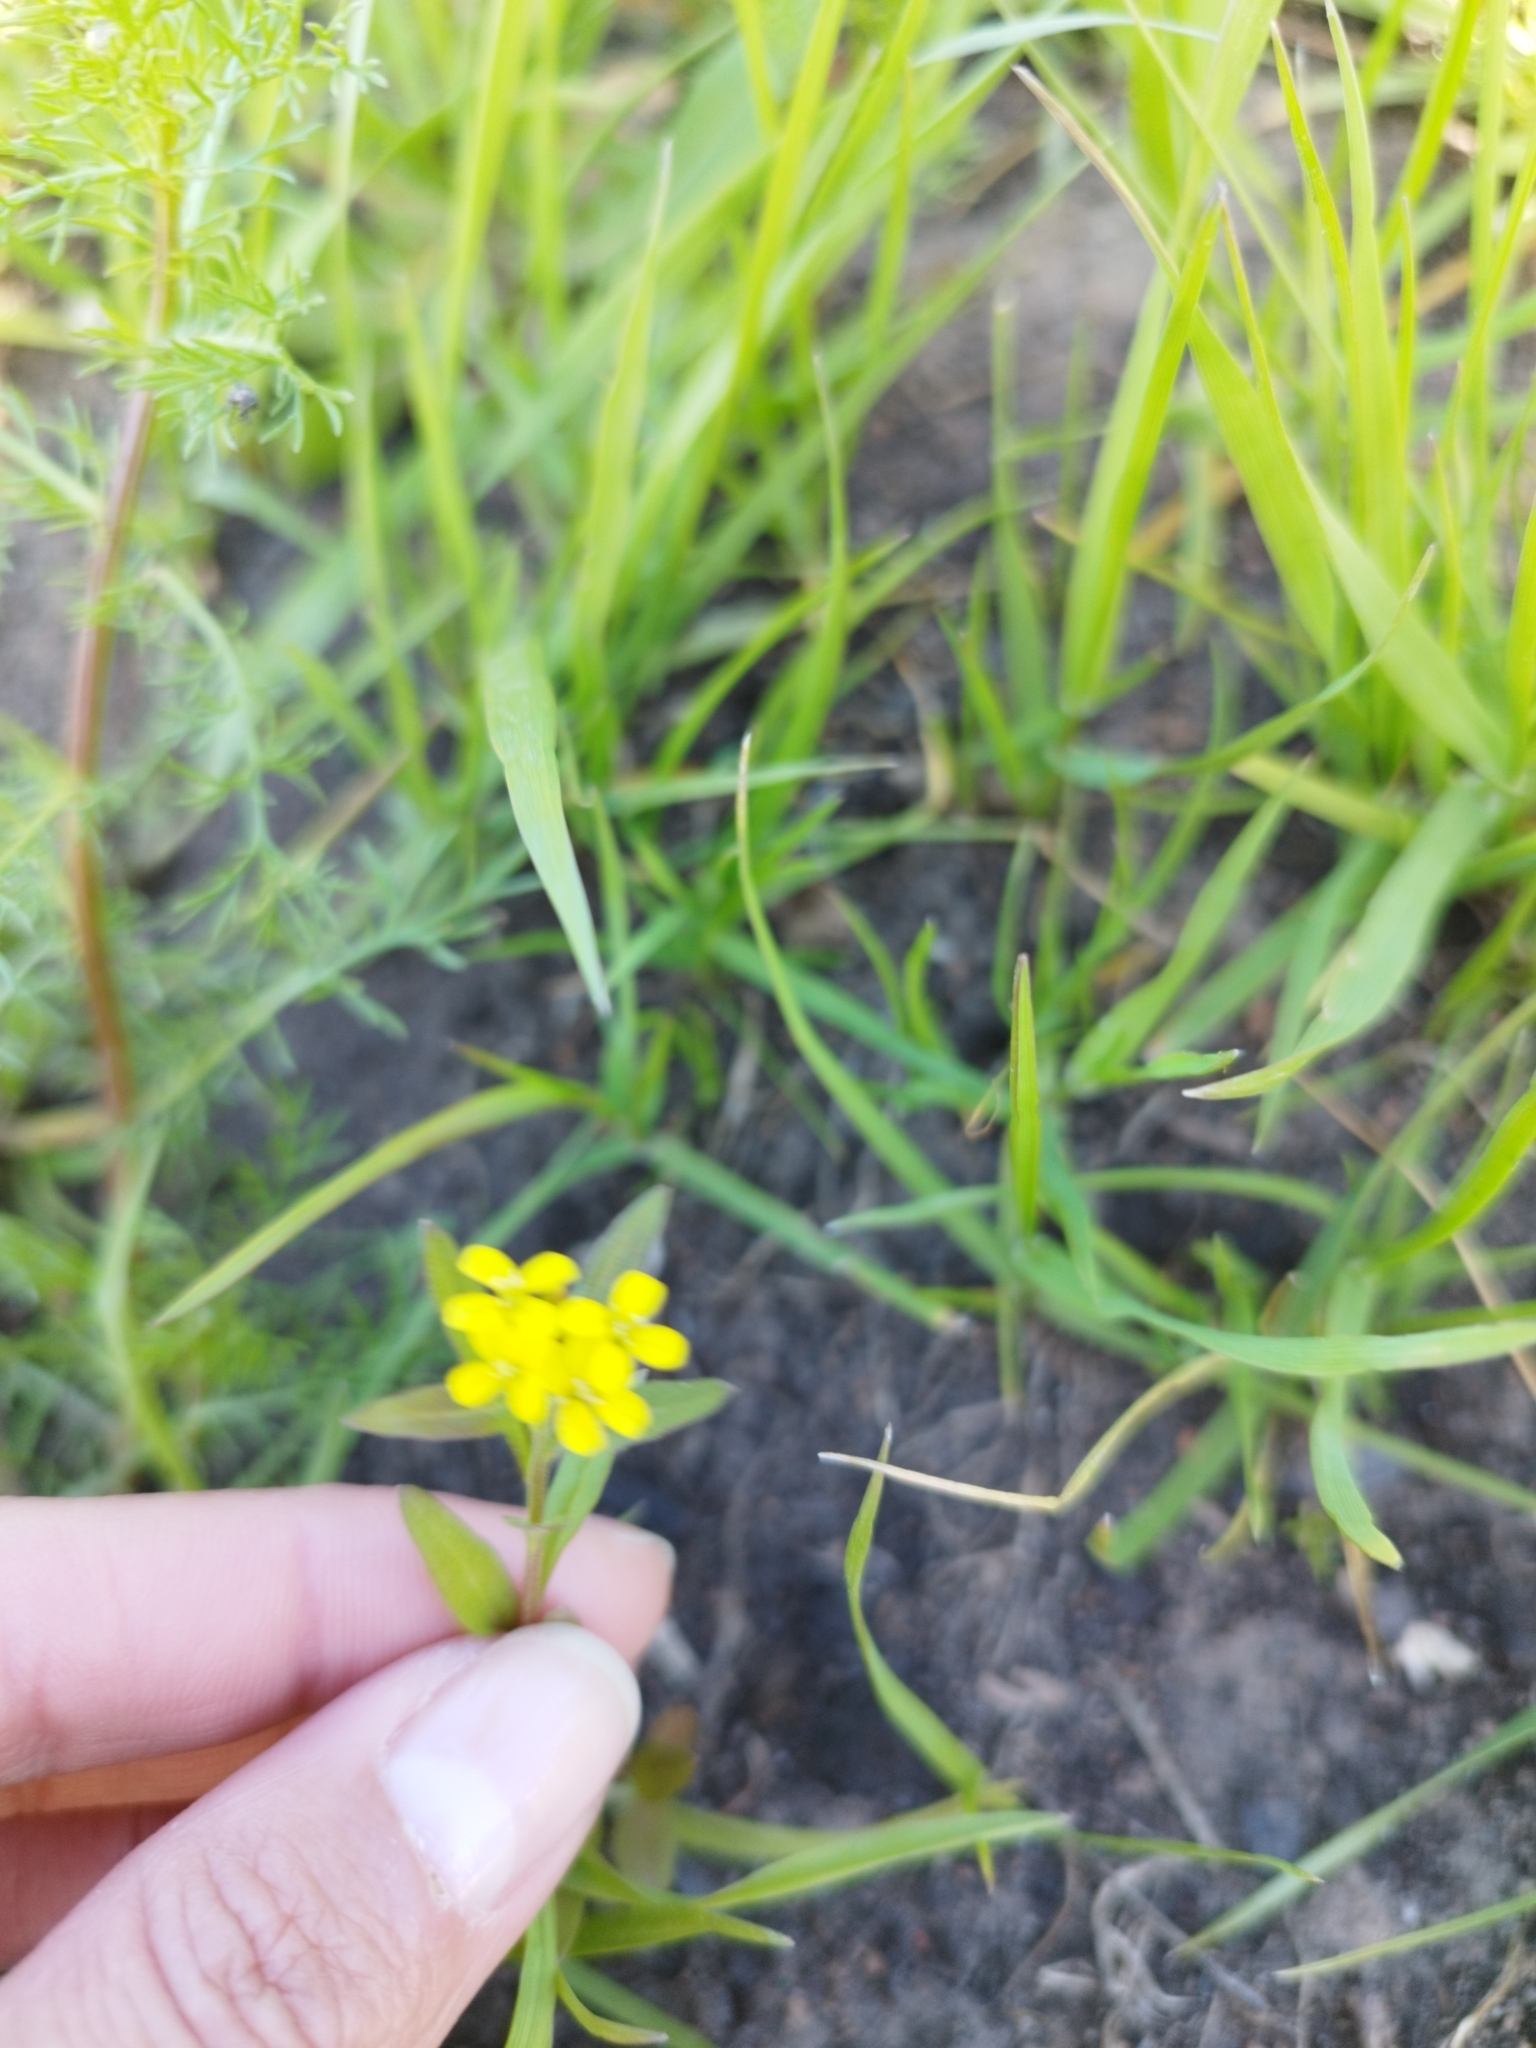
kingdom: Plantae
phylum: Tracheophyta
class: Magnoliopsida
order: Brassicales
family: Brassicaceae
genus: Erysimum
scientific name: Erysimum cheiranthoides
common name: Treacle mustard
